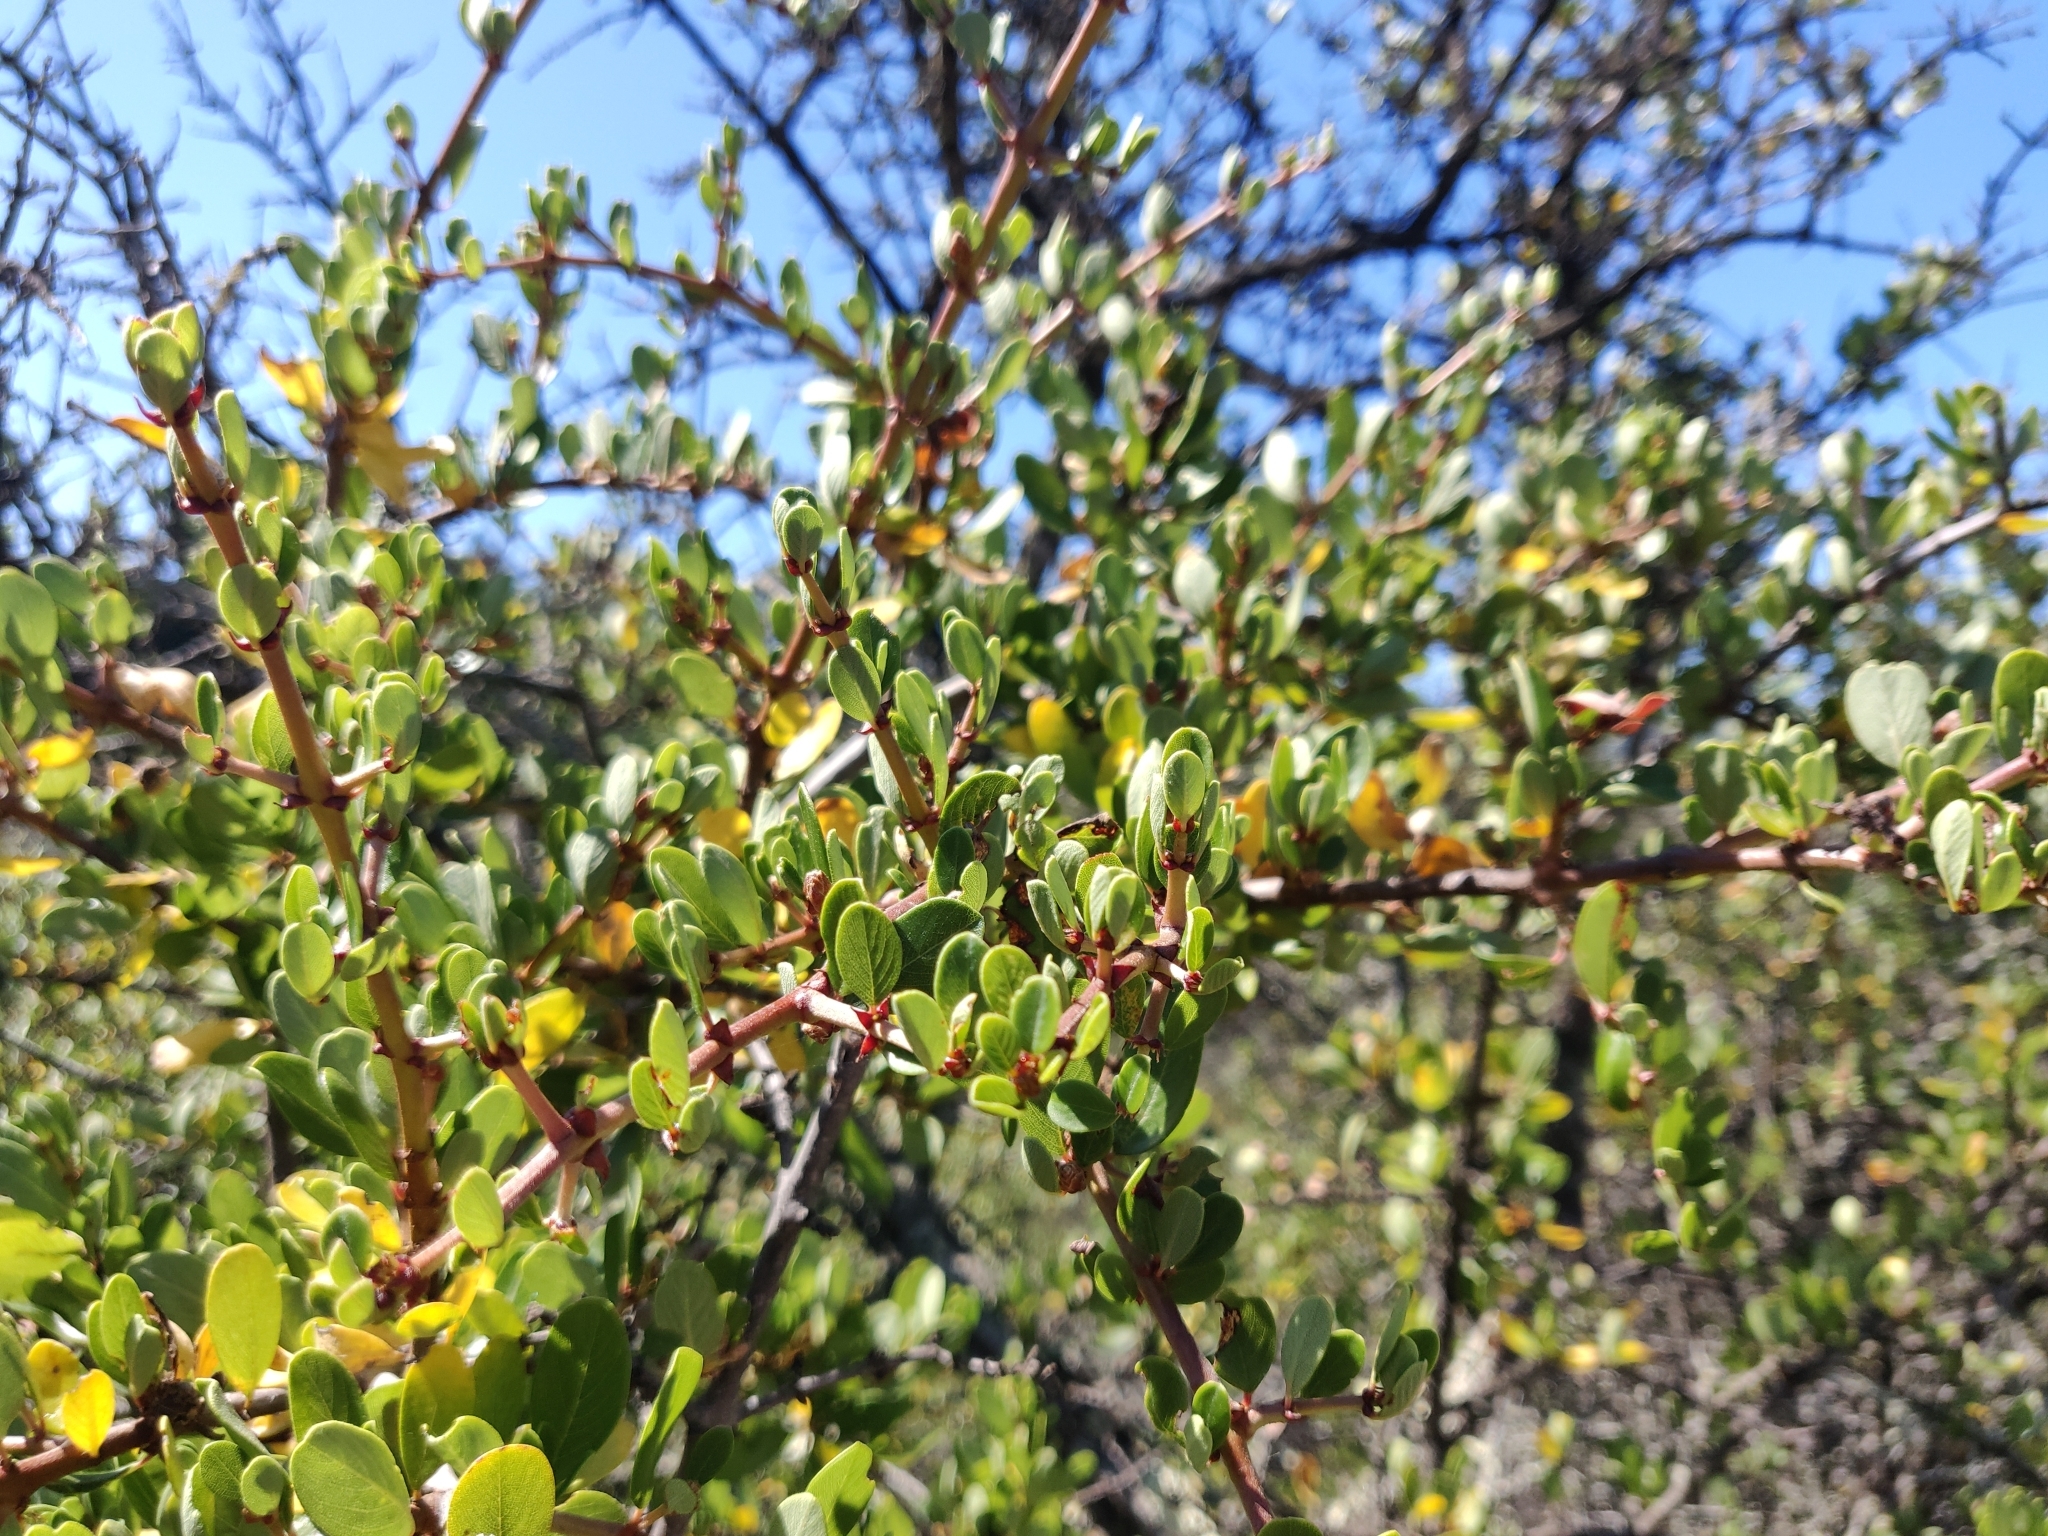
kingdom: Plantae
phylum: Tracheophyta
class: Magnoliopsida
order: Rosales
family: Rhamnaceae
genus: Endotropis
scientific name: Endotropis crocea
